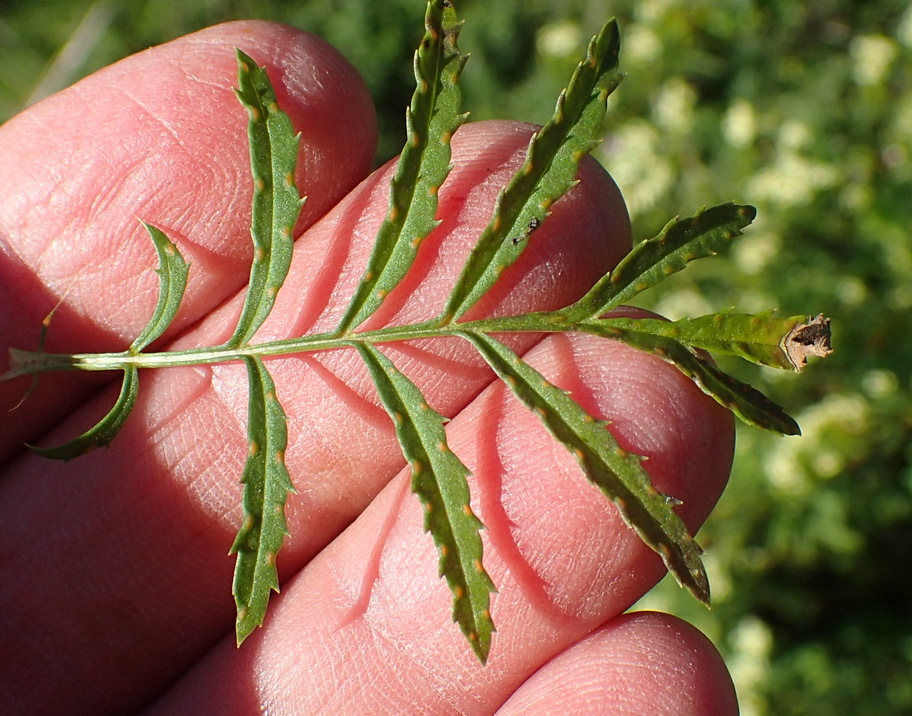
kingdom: Plantae
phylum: Tracheophyta
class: Magnoliopsida
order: Asterales
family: Asteraceae
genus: Tagetes
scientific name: Tagetes minuta
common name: Muster john henry
